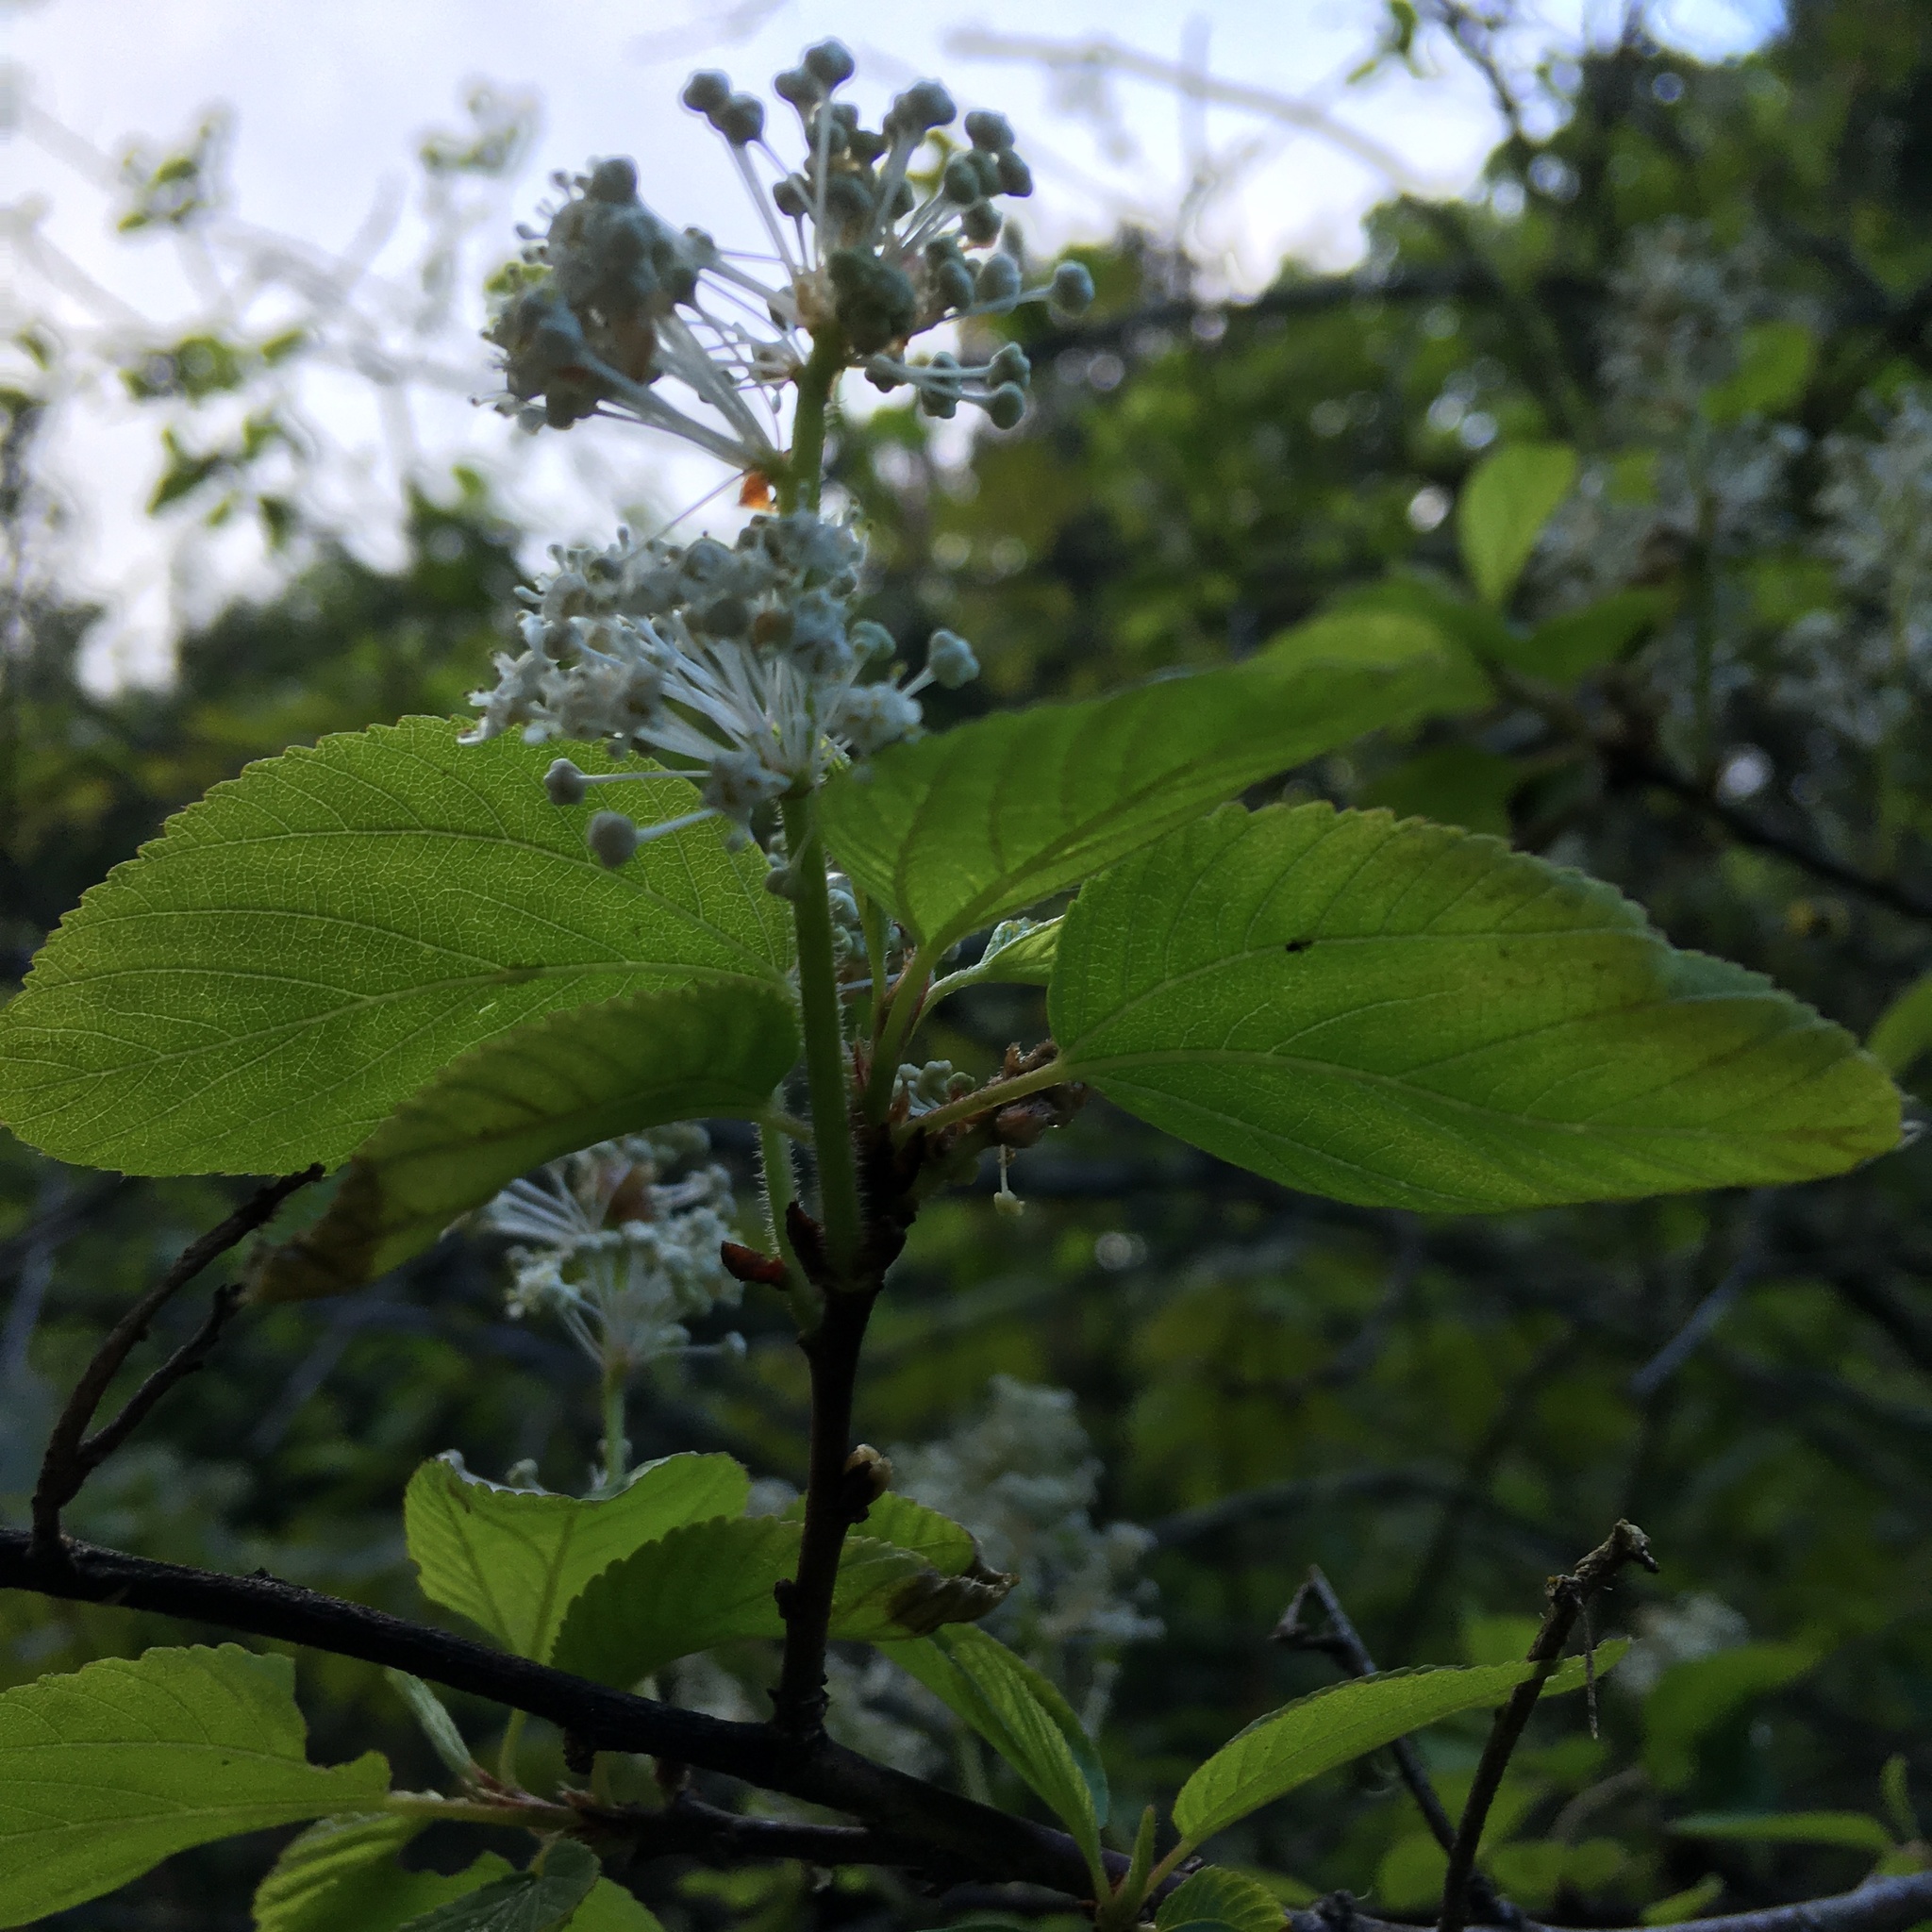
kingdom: Plantae
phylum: Tracheophyta
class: Magnoliopsida
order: Rosales
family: Rhamnaceae
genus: Ceanothus
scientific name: Ceanothus sanguineus
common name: Teatree
